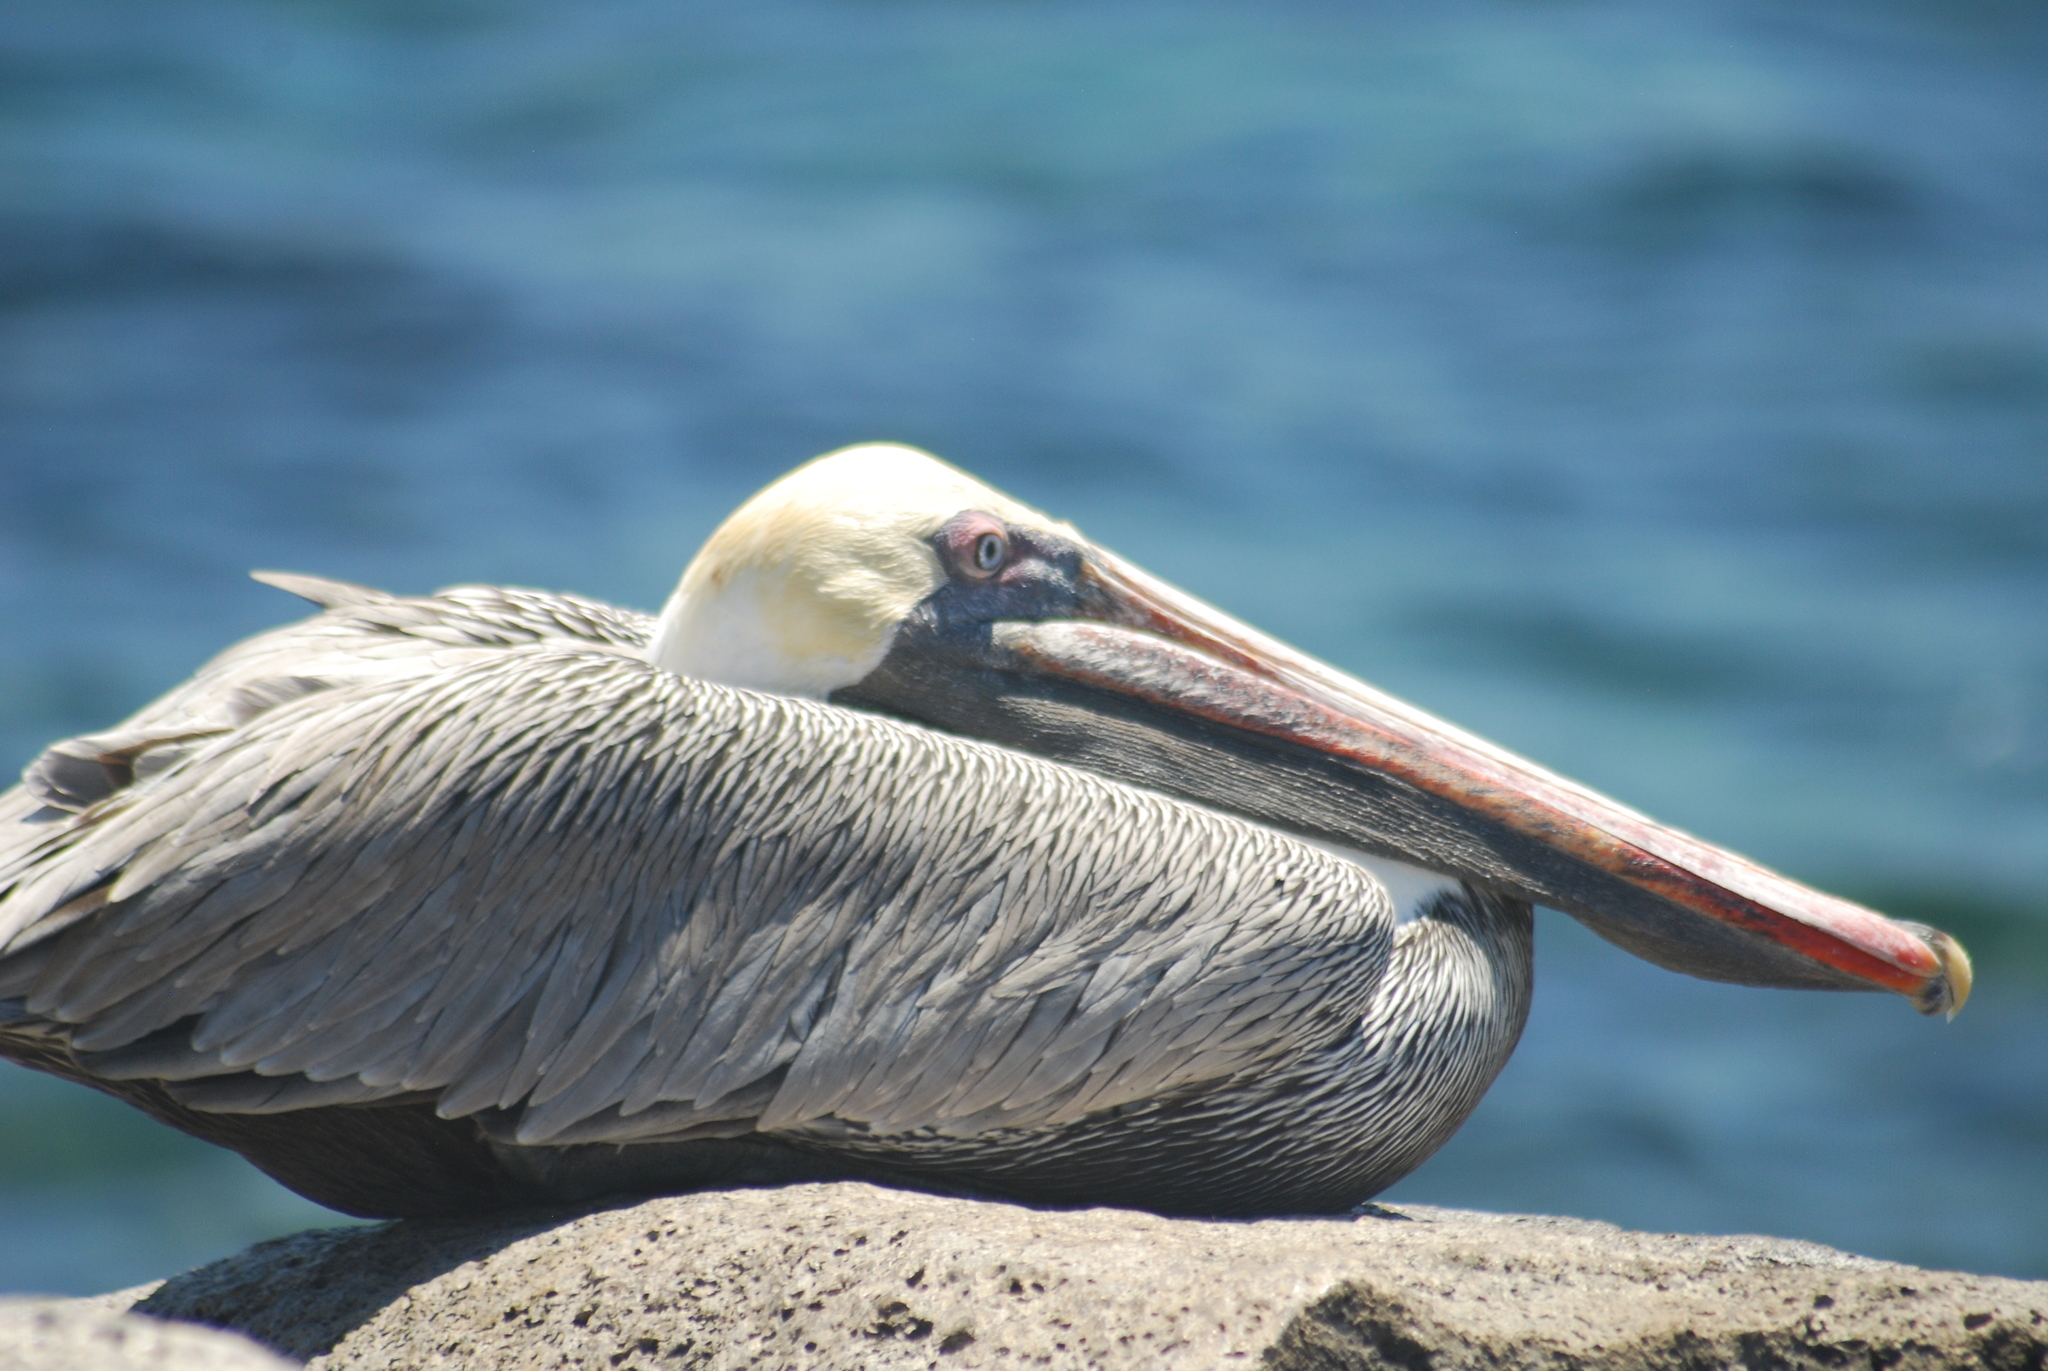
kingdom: Animalia
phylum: Chordata
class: Aves
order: Pelecaniformes
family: Pelecanidae
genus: Pelecanus
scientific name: Pelecanus occidentalis
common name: Brown pelican
